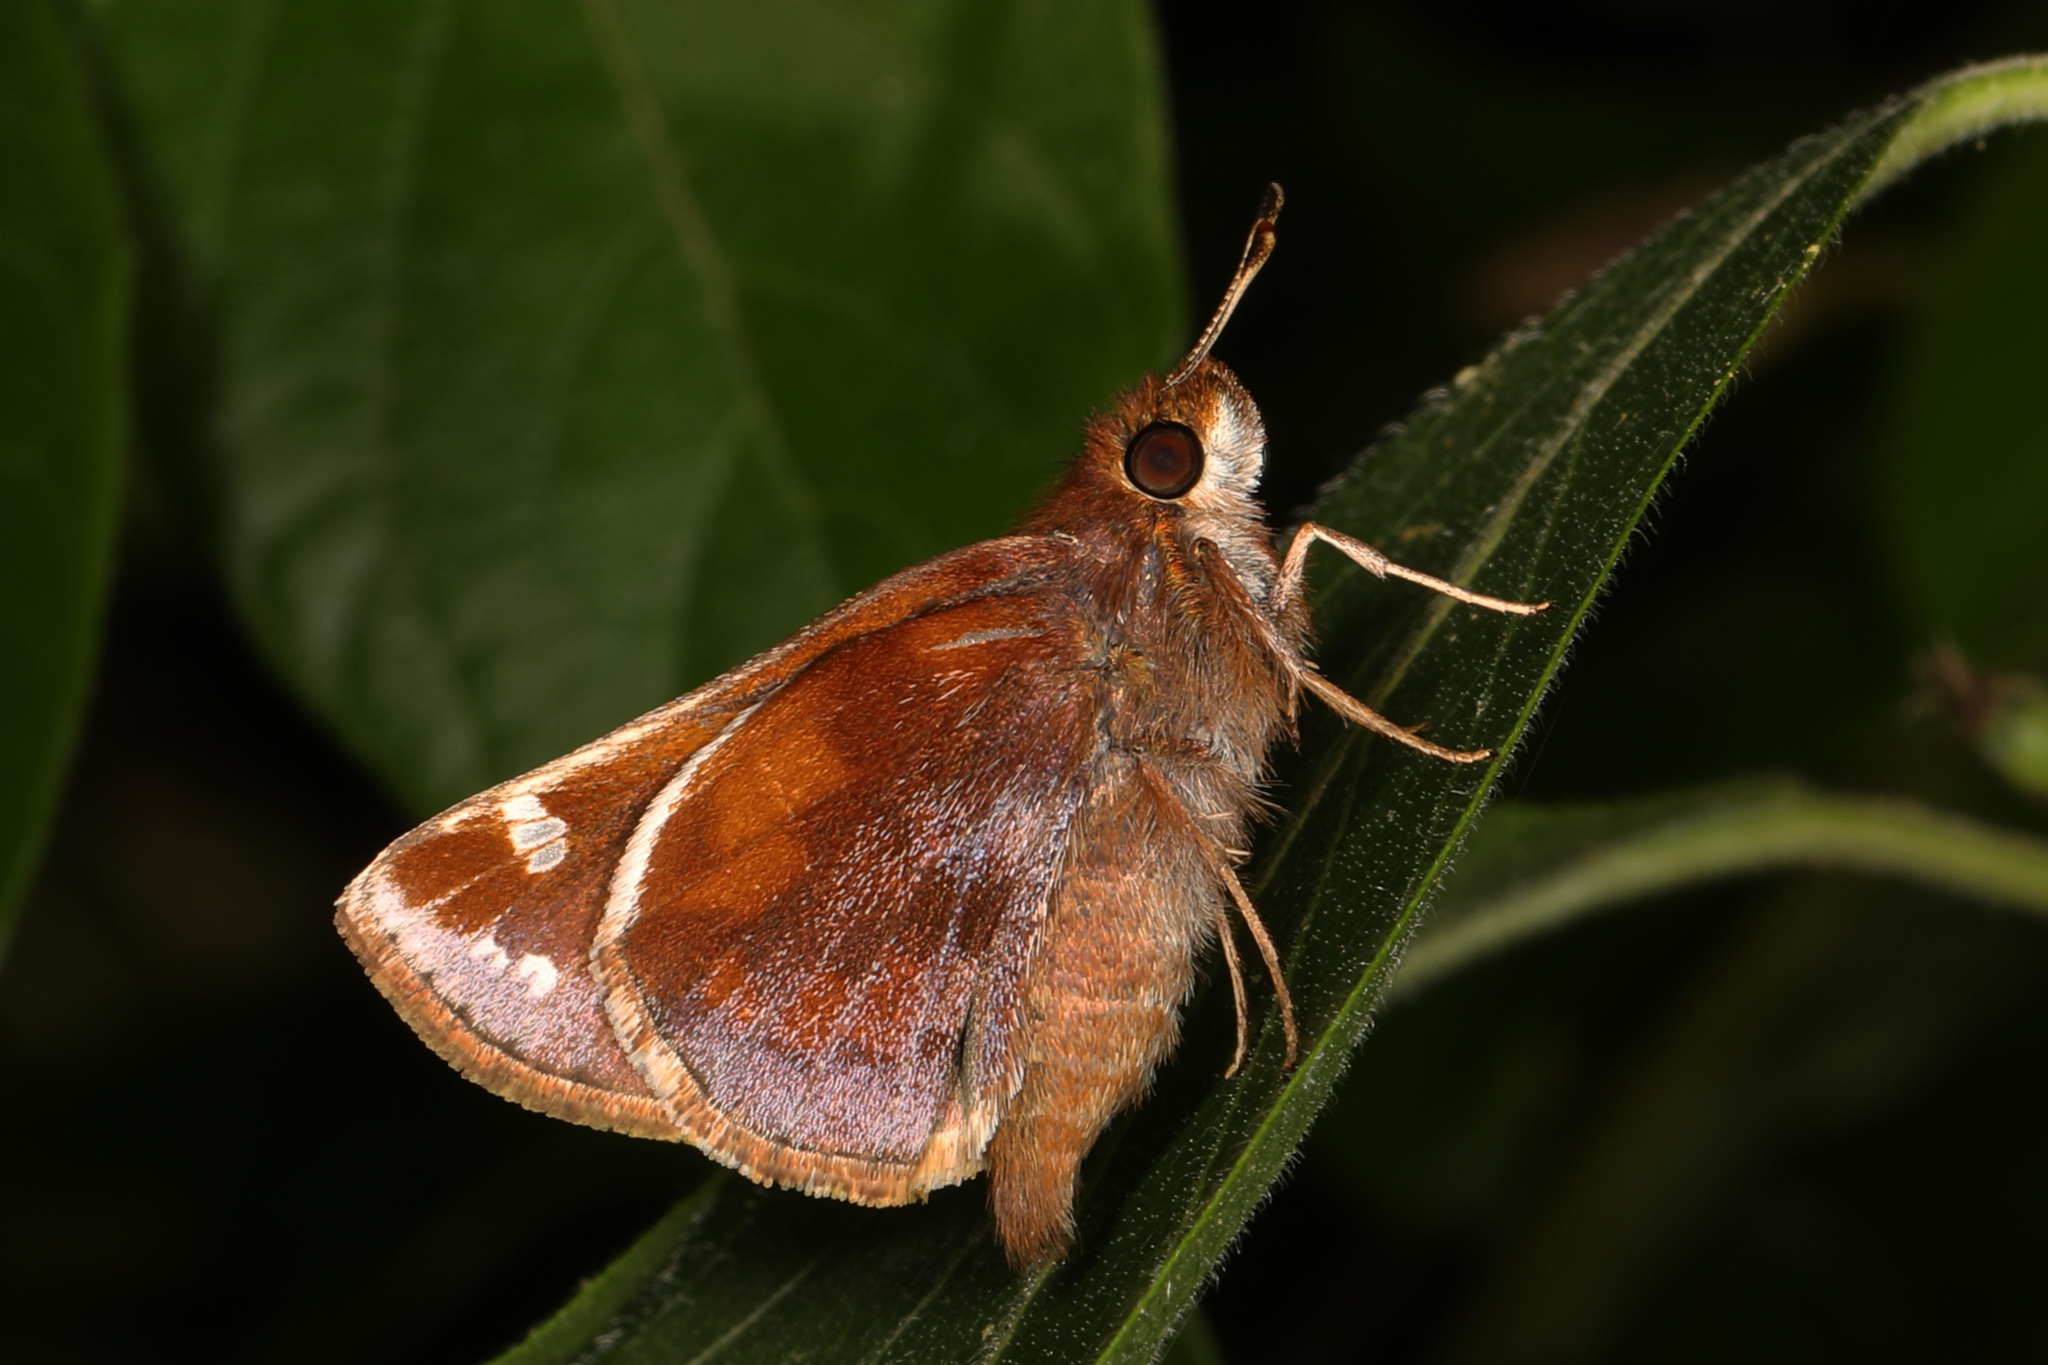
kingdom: Animalia
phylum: Arthropoda
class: Insecta
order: Lepidoptera
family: Hesperiidae
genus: Lon
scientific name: Lon zabulon
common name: Zabulon skipper
